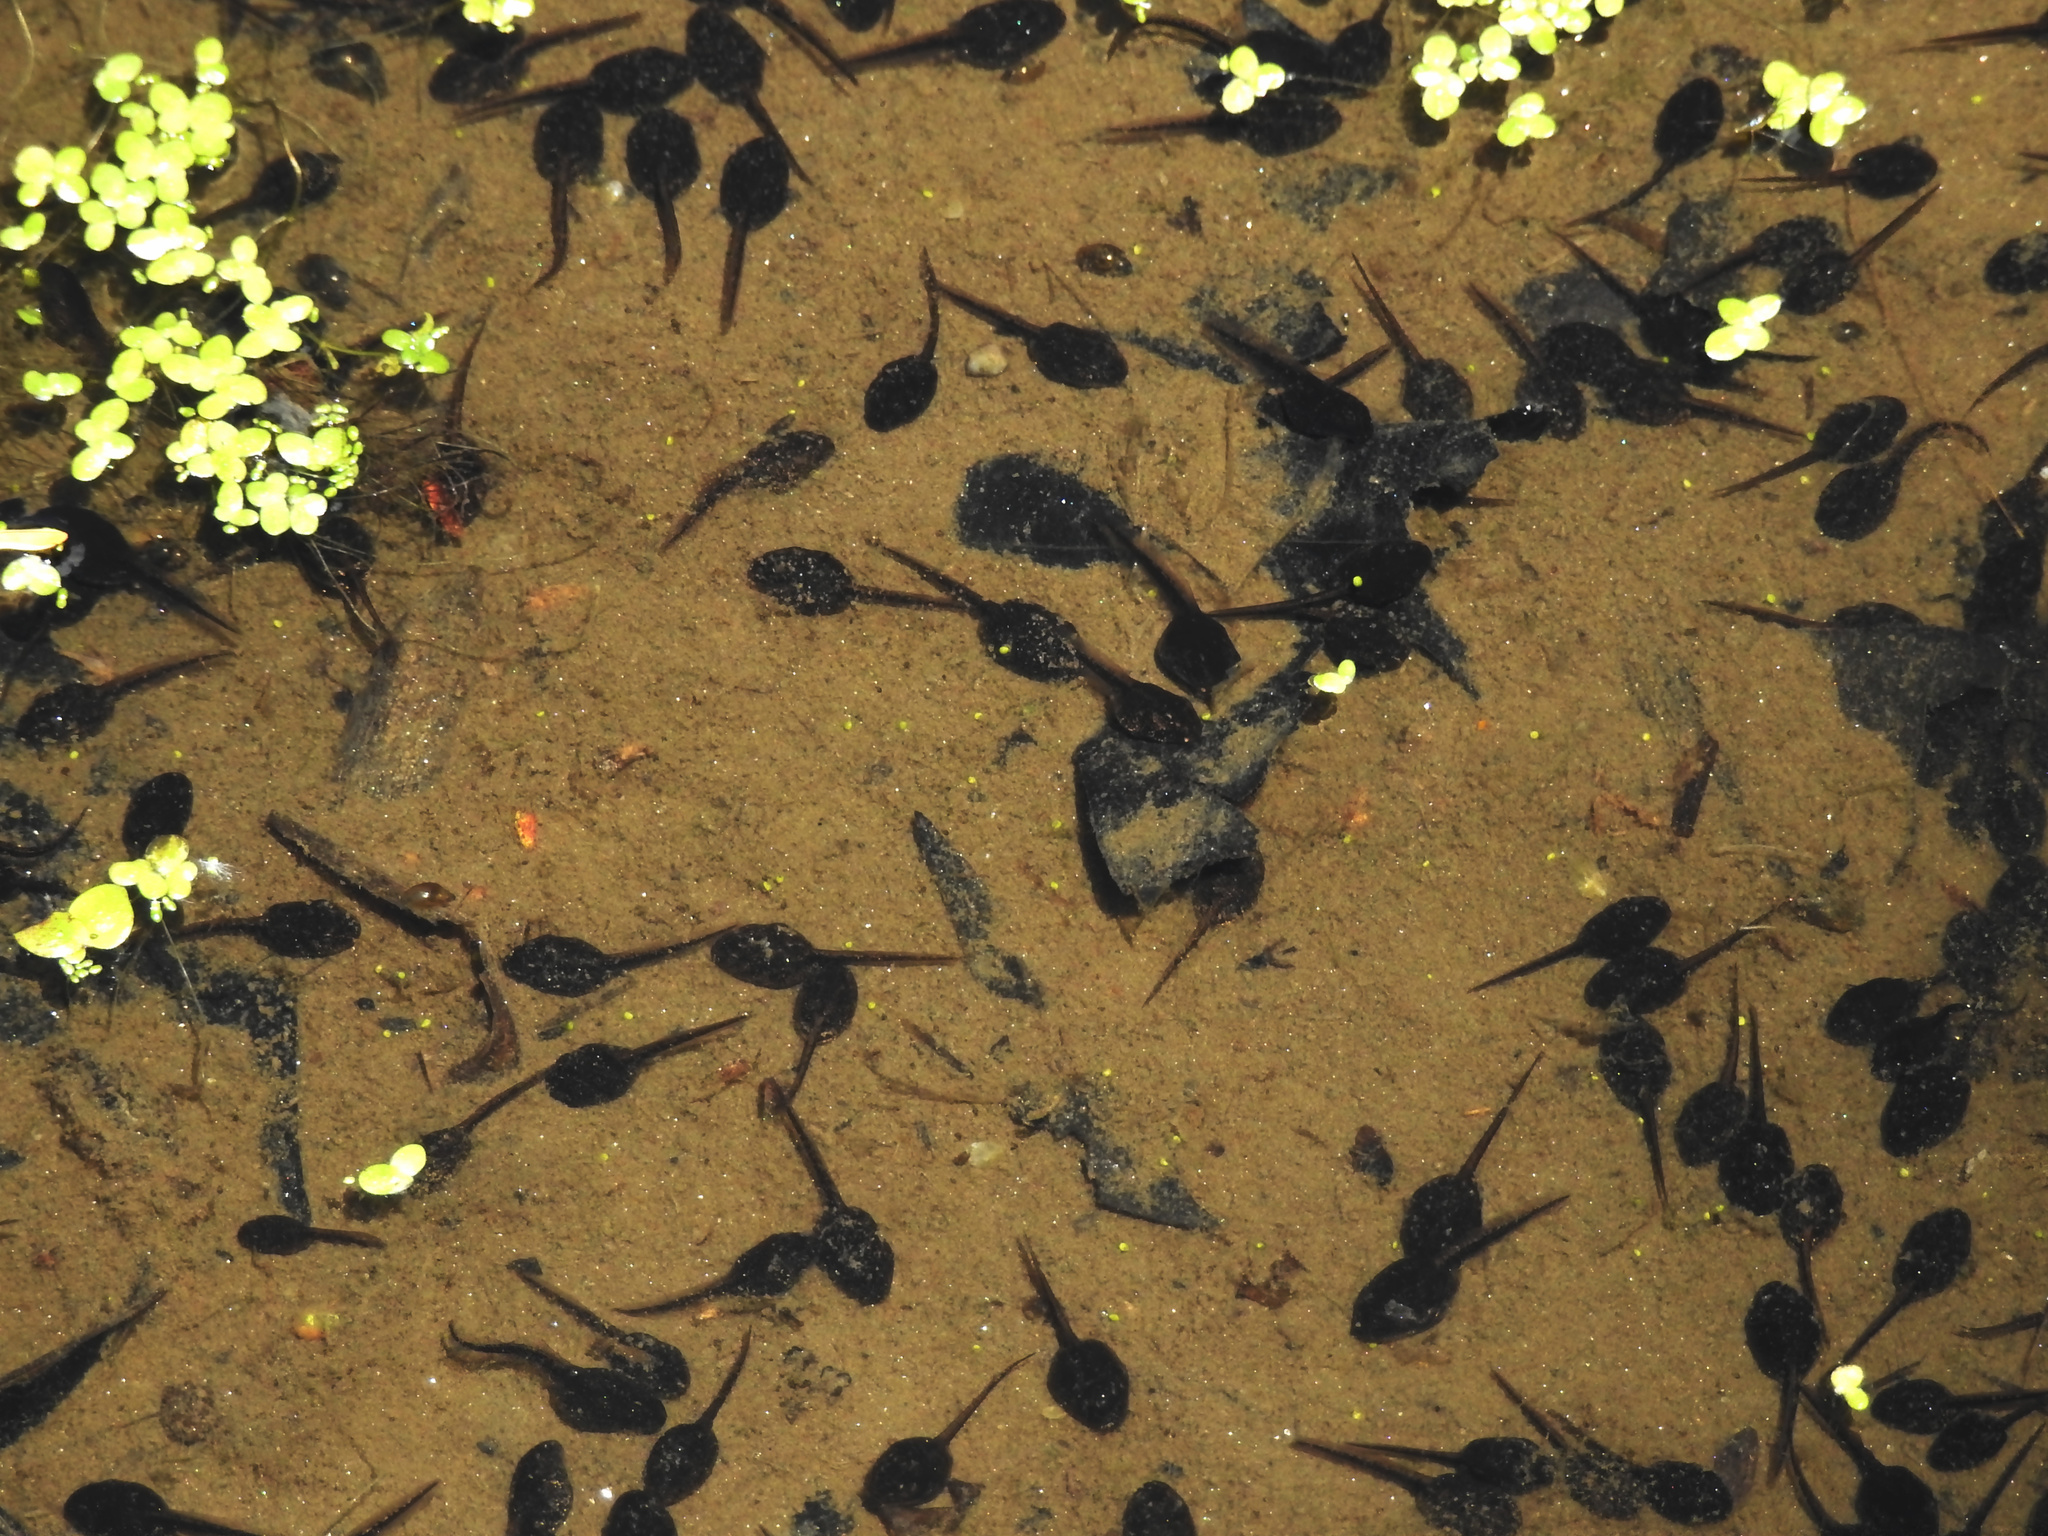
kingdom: Animalia
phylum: Chordata
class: Amphibia
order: Anura
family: Bufonidae
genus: Anaxyrus
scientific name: Anaxyrus americanus
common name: American toad
